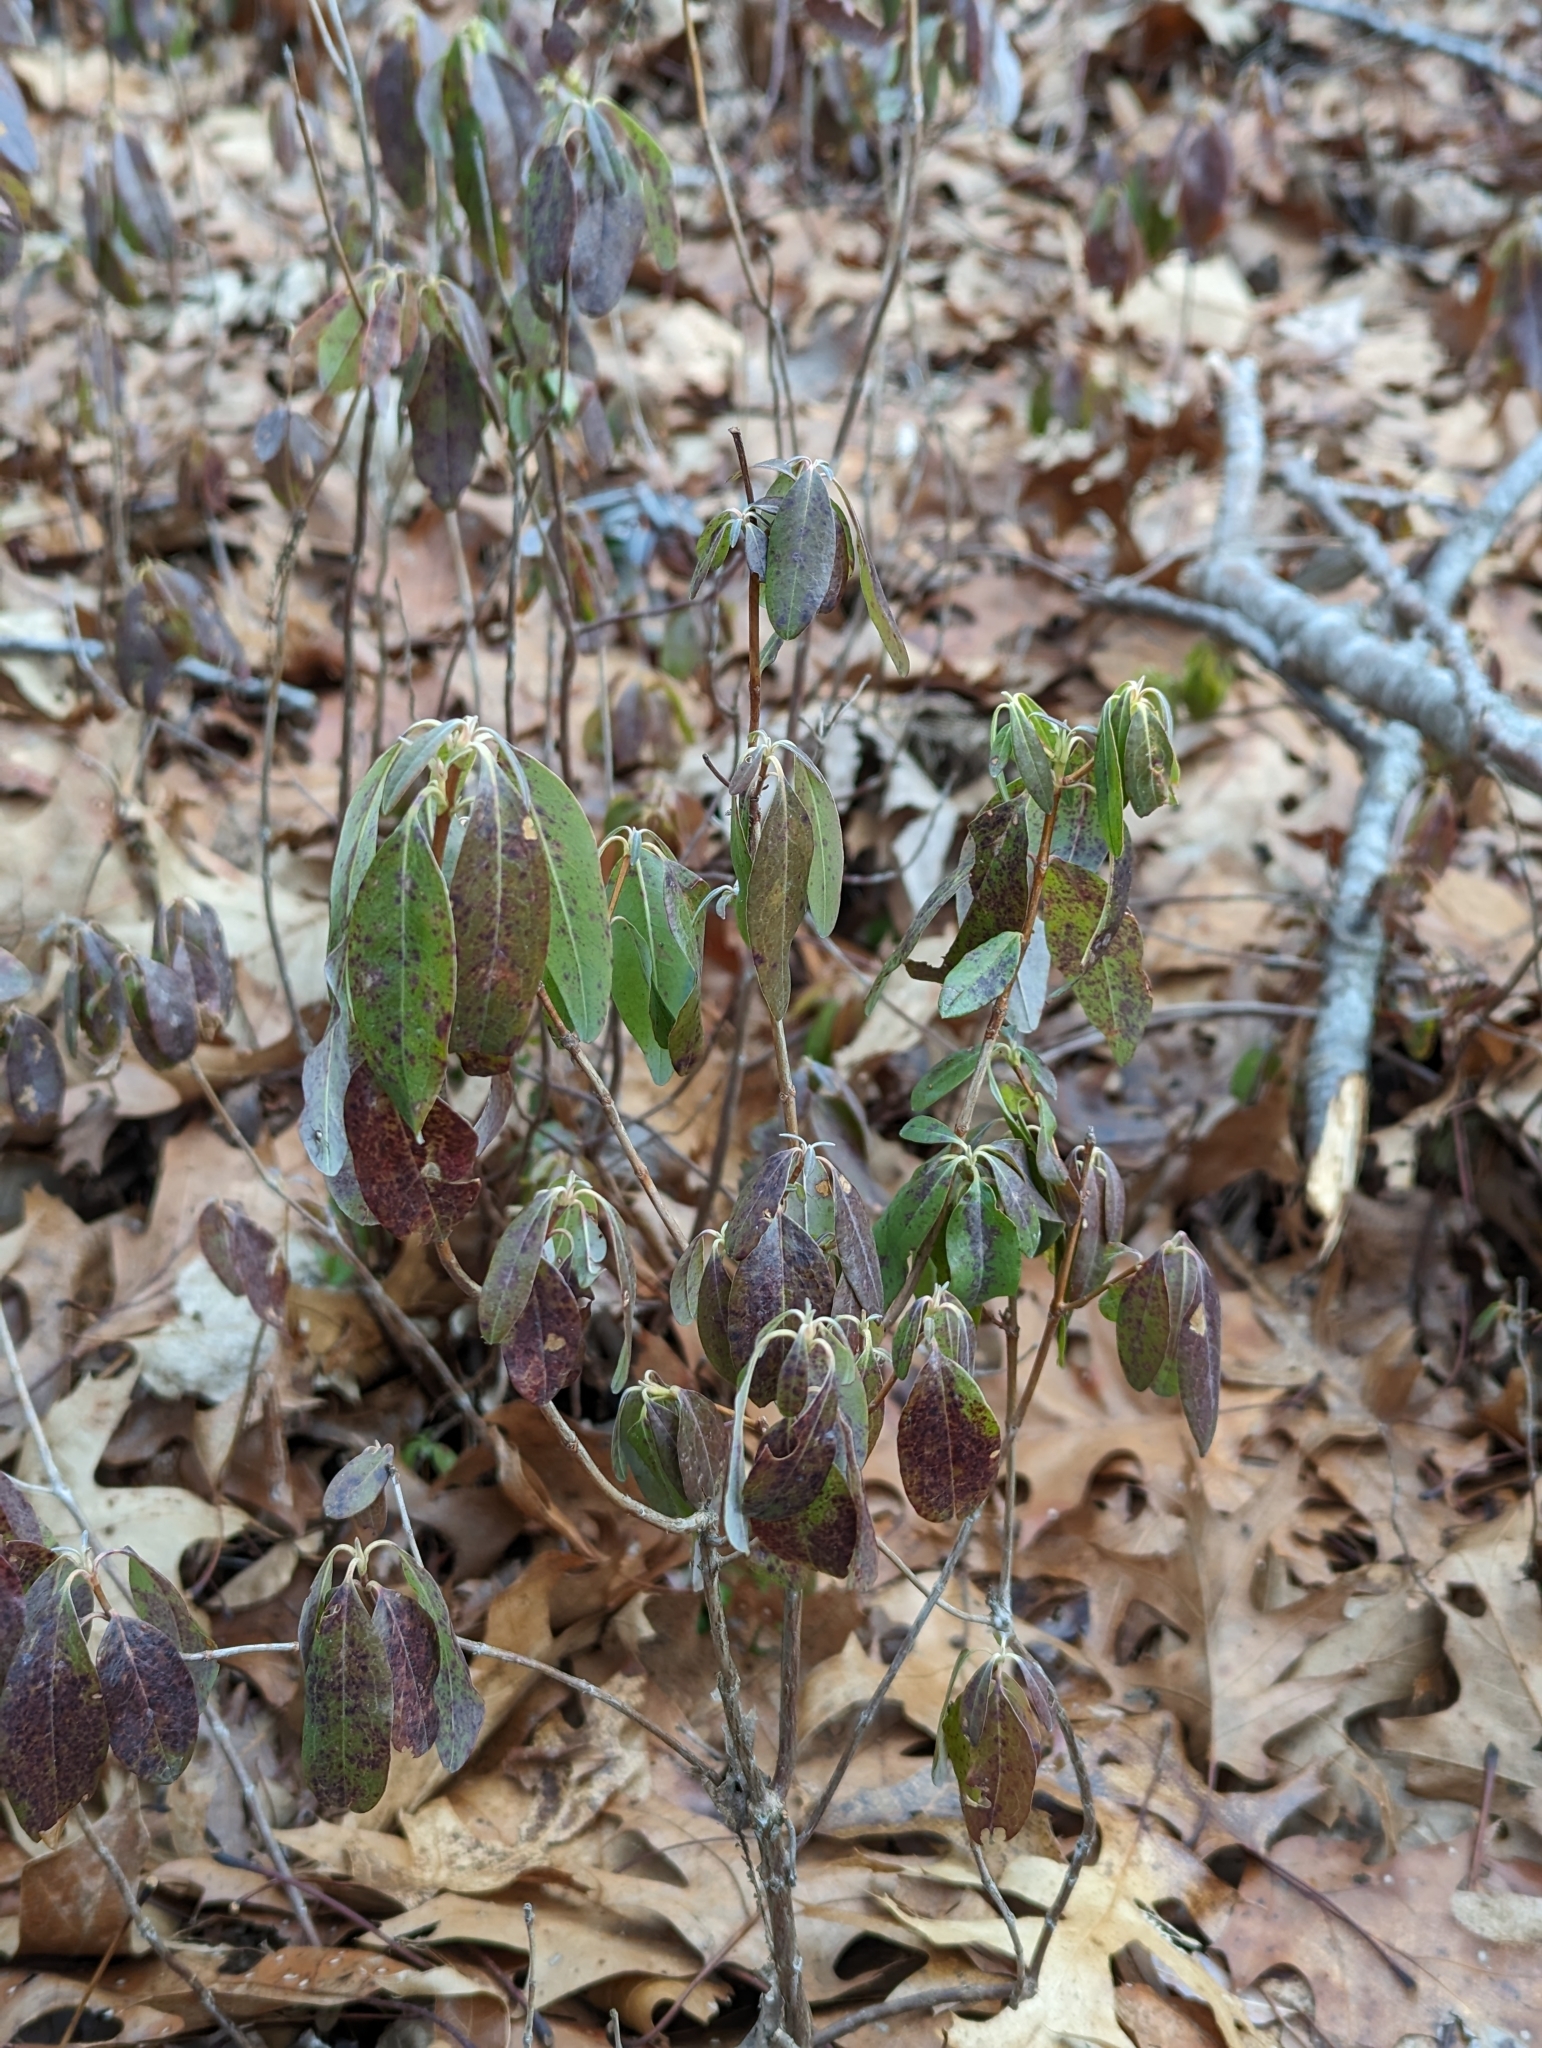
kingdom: Plantae
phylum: Tracheophyta
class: Magnoliopsida
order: Ericales
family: Ericaceae
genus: Kalmia
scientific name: Kalmia angustifolia
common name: Sheep-laurel
